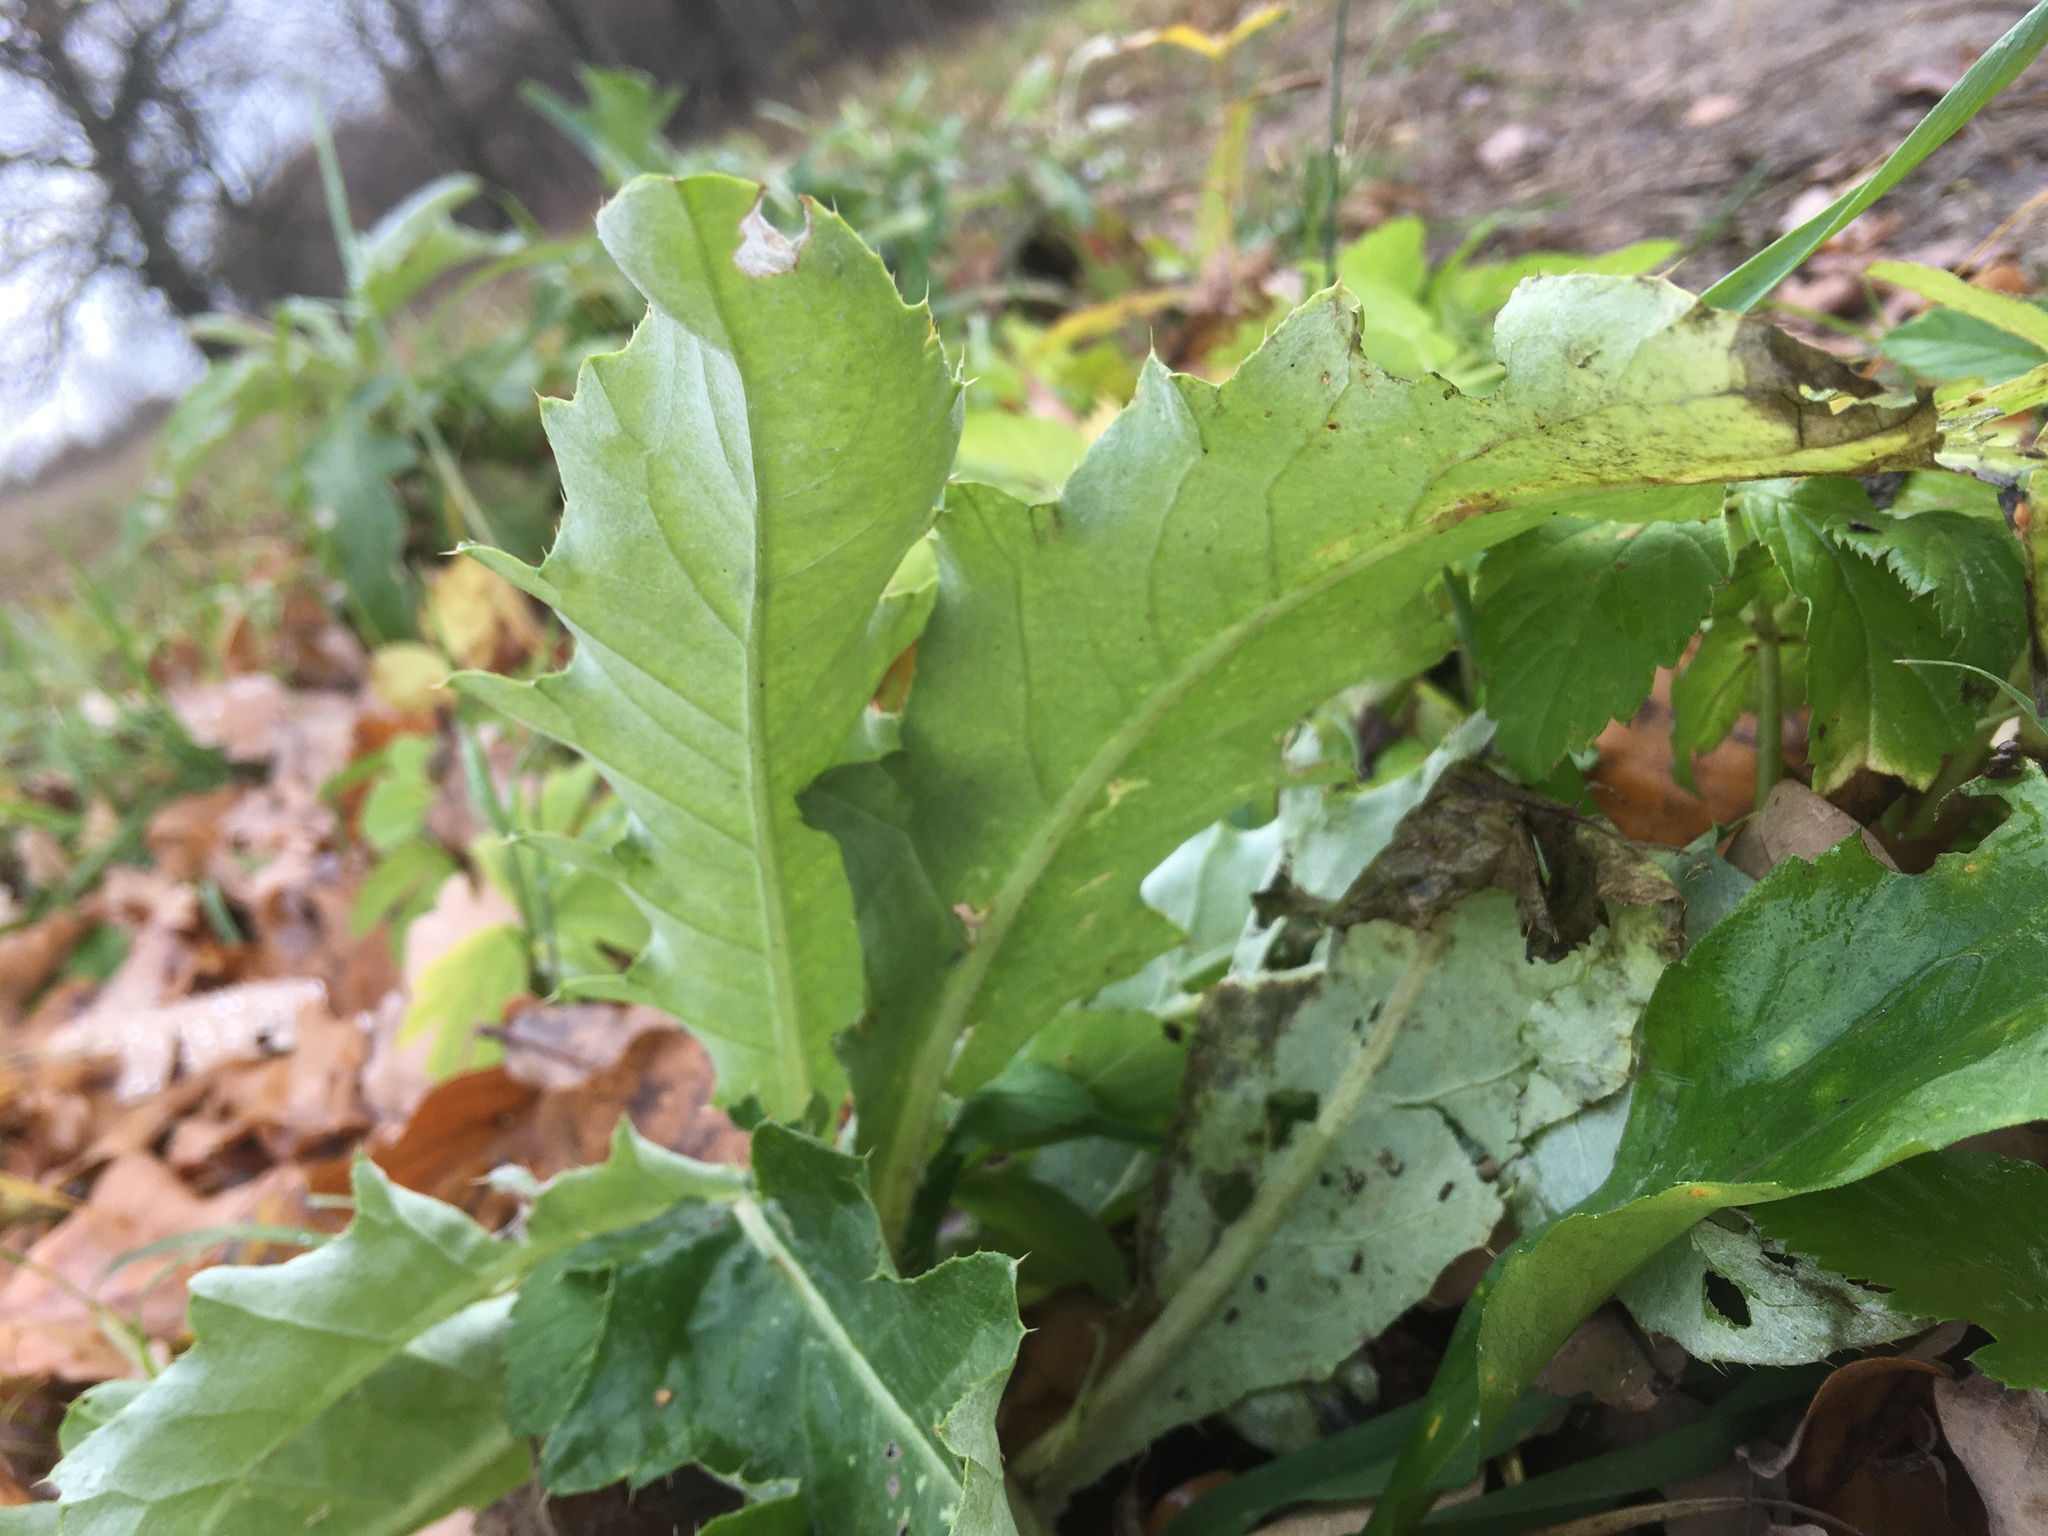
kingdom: Plantae
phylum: Tracheophyta
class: Magnoliopsida
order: Asterales
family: Asteraceae
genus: Cirsium
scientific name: Cirsium arvense
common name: Creeping thistle
